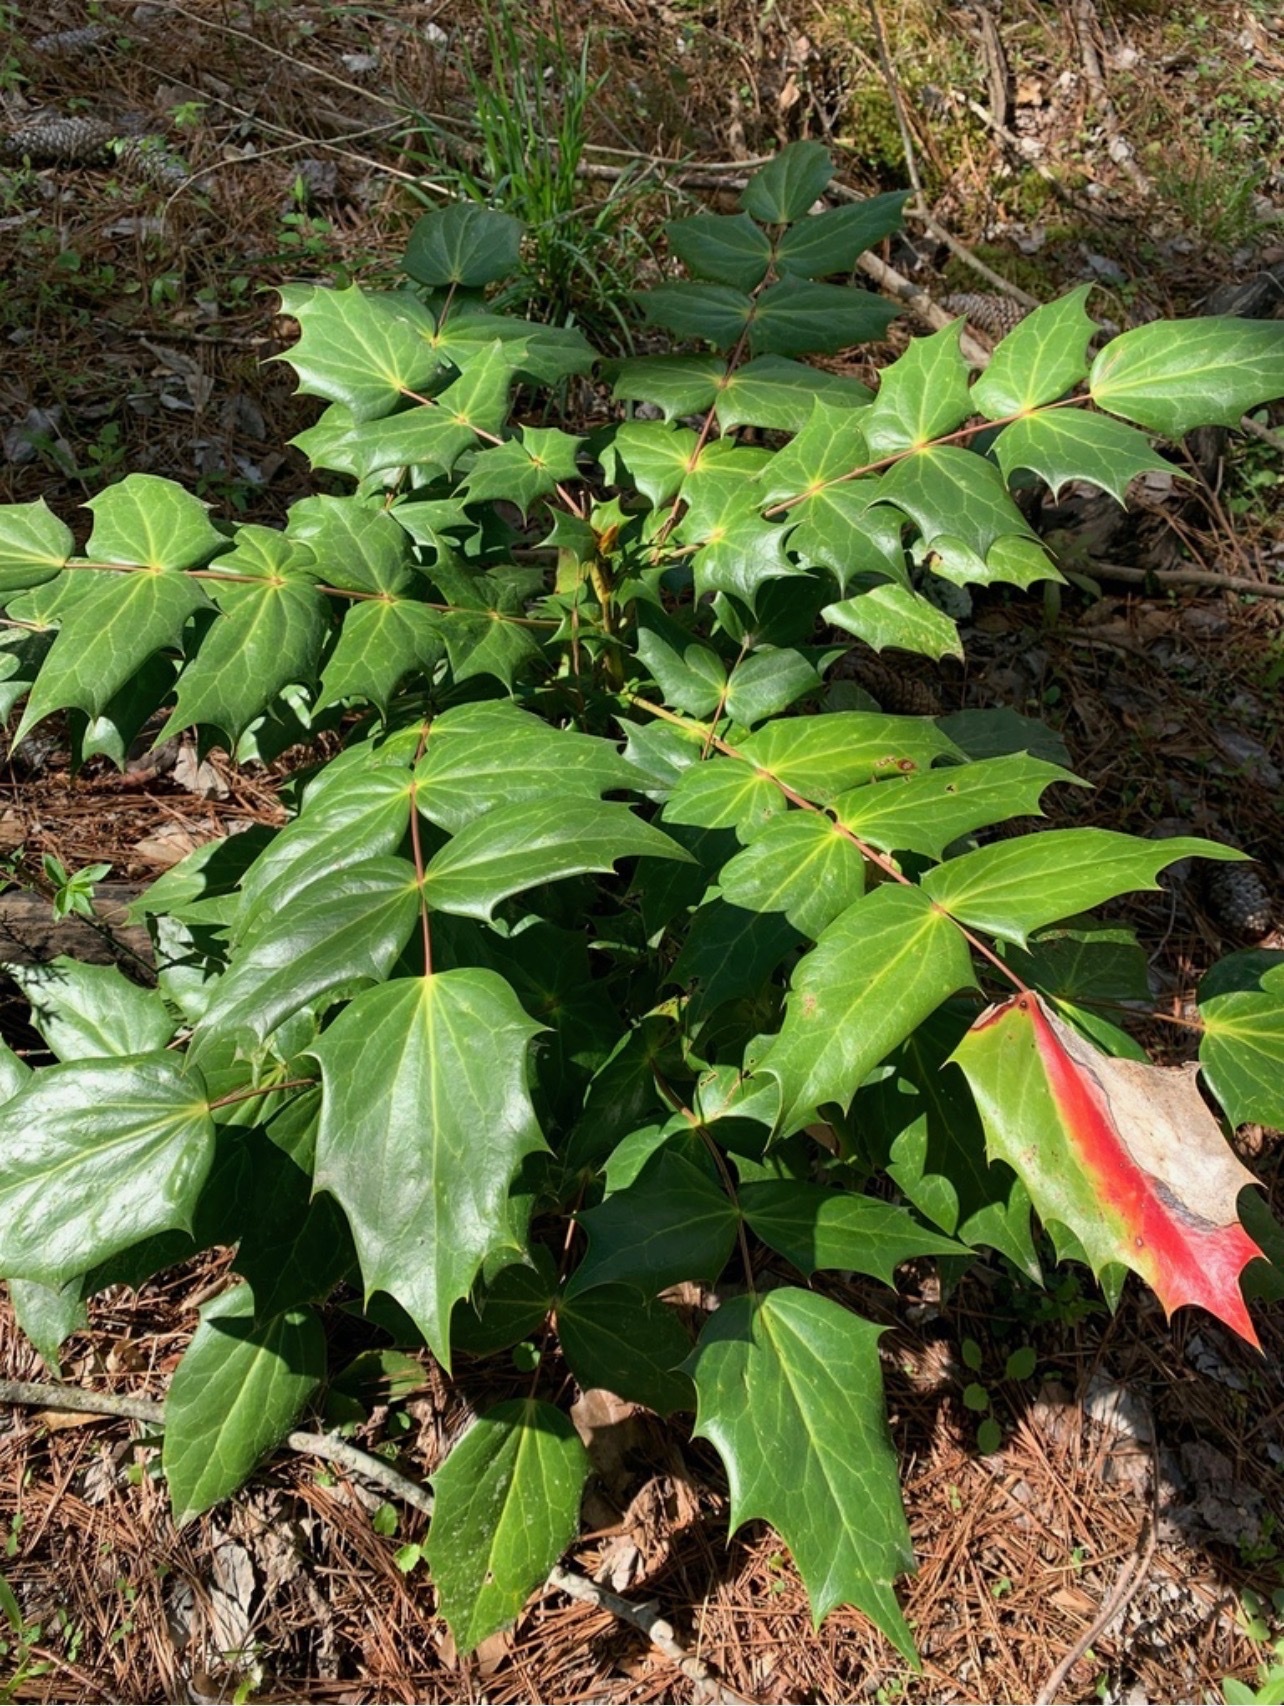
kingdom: Plantae
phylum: Tracheophyta
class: Magnoliopsida
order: Ranunculales
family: Berberidaceae
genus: Mahonia
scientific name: Mahonia bealei
